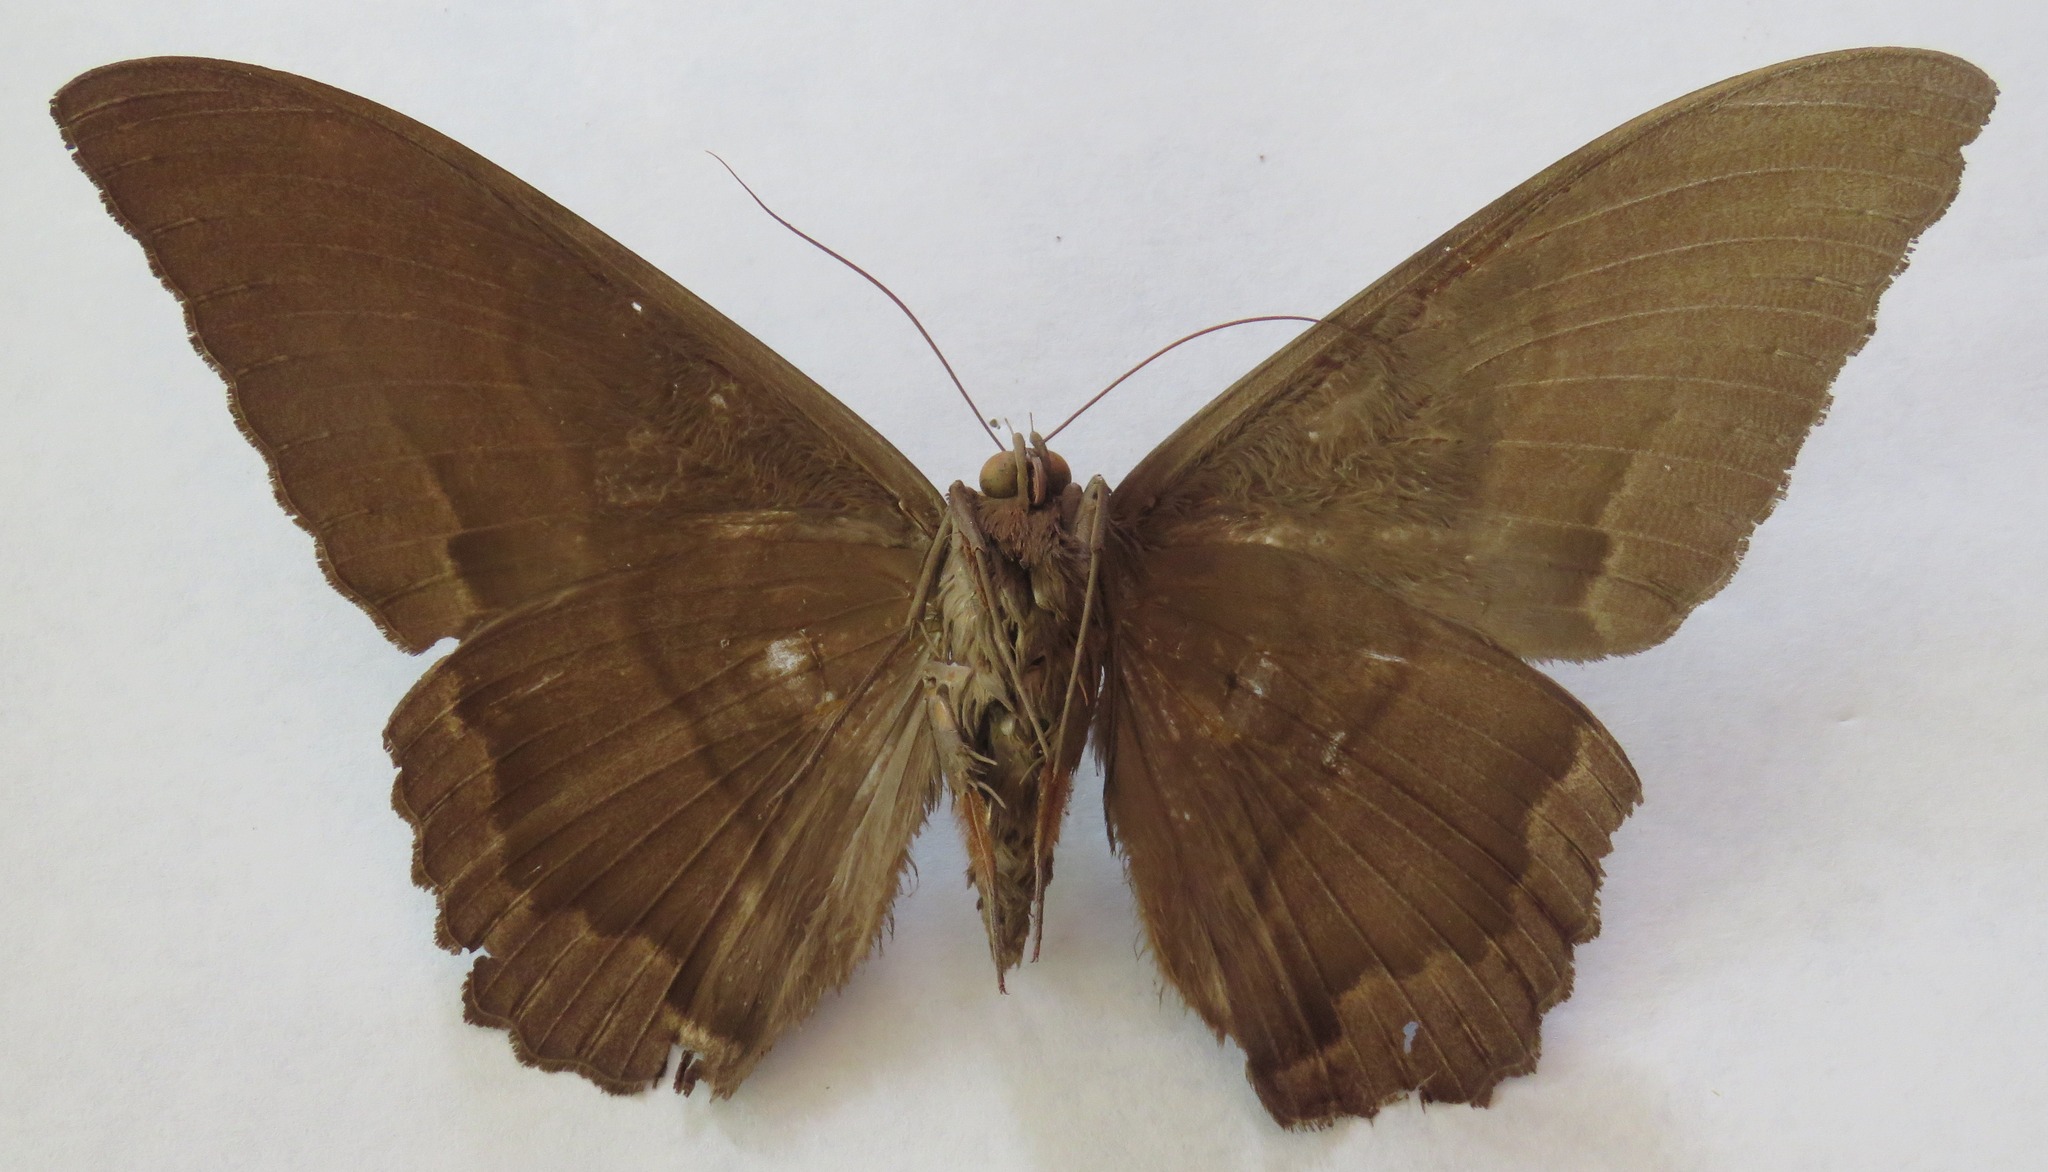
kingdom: Animalia
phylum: Arthropoda
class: Insecta
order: Lepidoptera
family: Erebidae
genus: Ascalapha
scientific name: Ascalapha odorata
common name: Black witch
